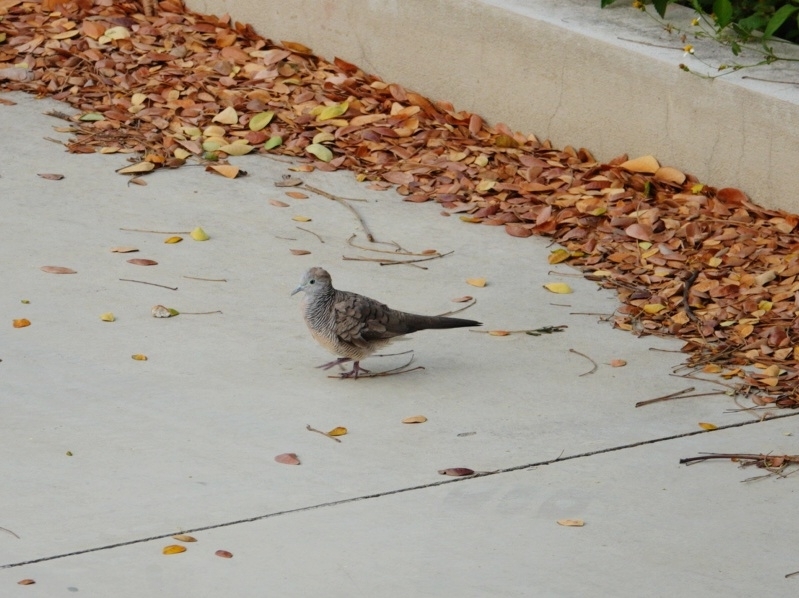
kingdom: Animalia
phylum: Chordata
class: Aves
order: Columbiformes
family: Columbidae
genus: Geopelia
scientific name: Geopelia striata
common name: Zebra dove
